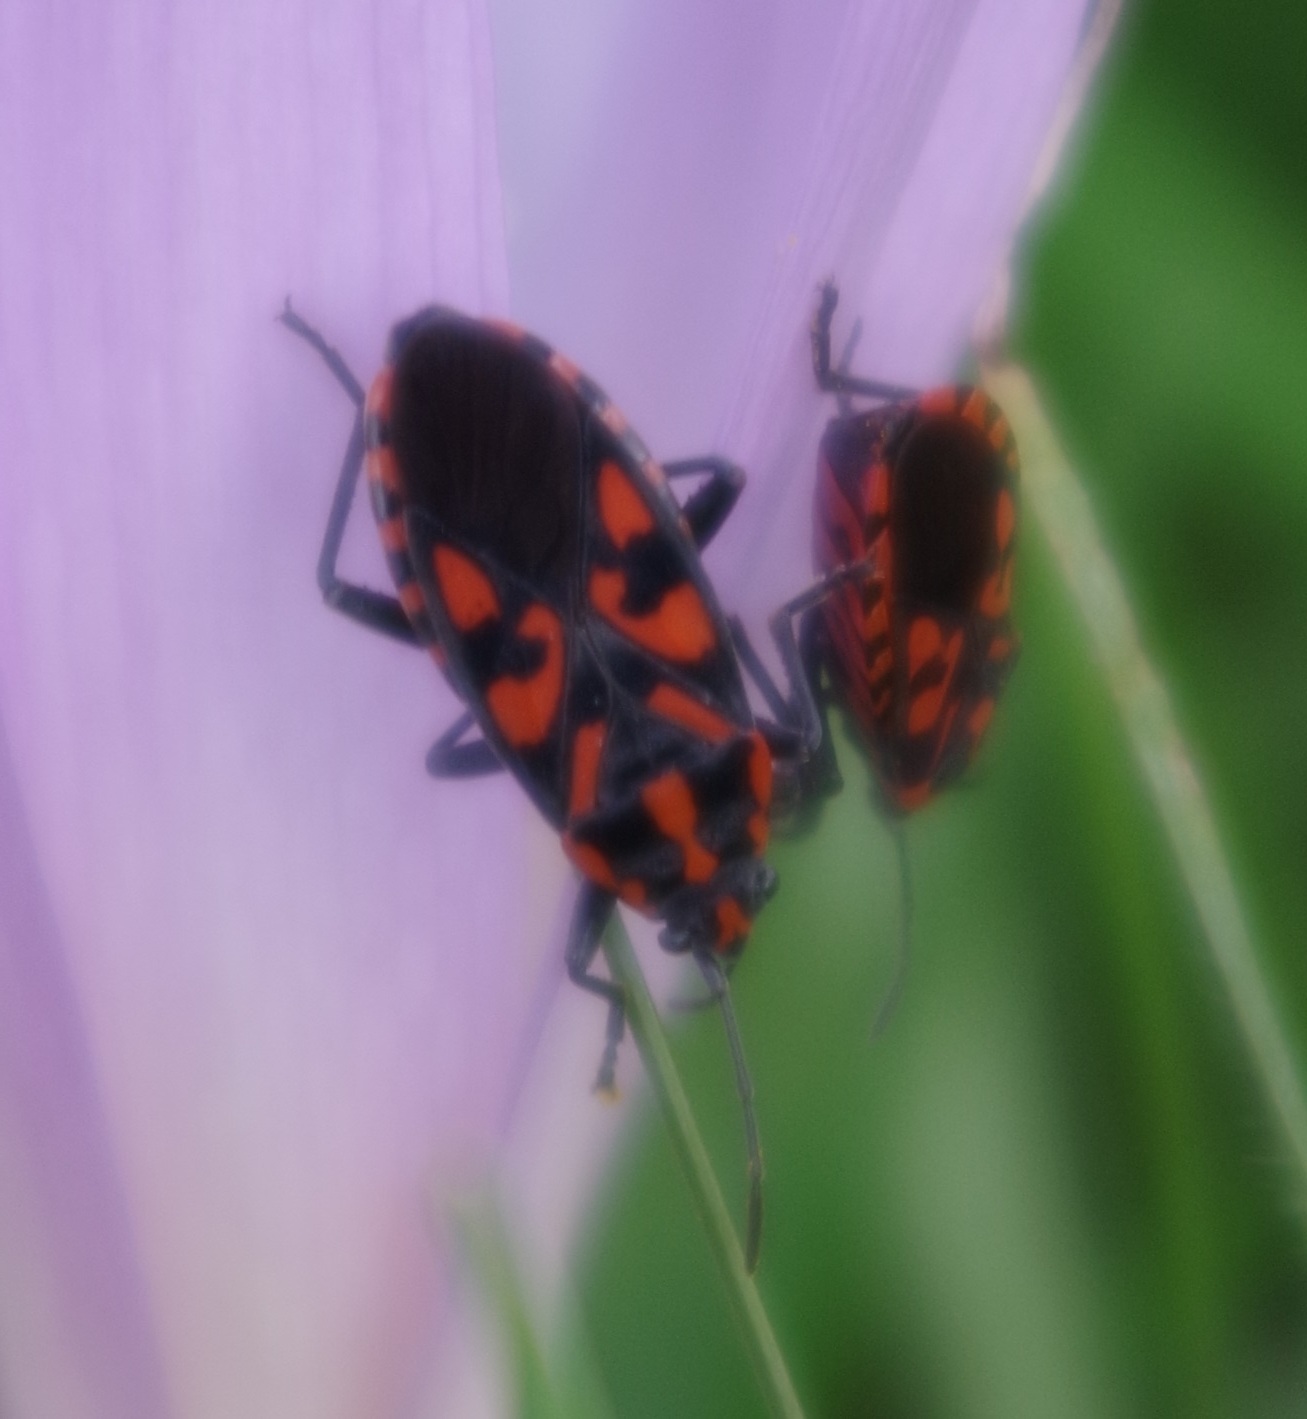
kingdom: Animalia
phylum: Arthropoda
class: Insecta
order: Hemiptera
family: Lygaeidae
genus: Spilostethus
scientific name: Spilostethus saxatilis
